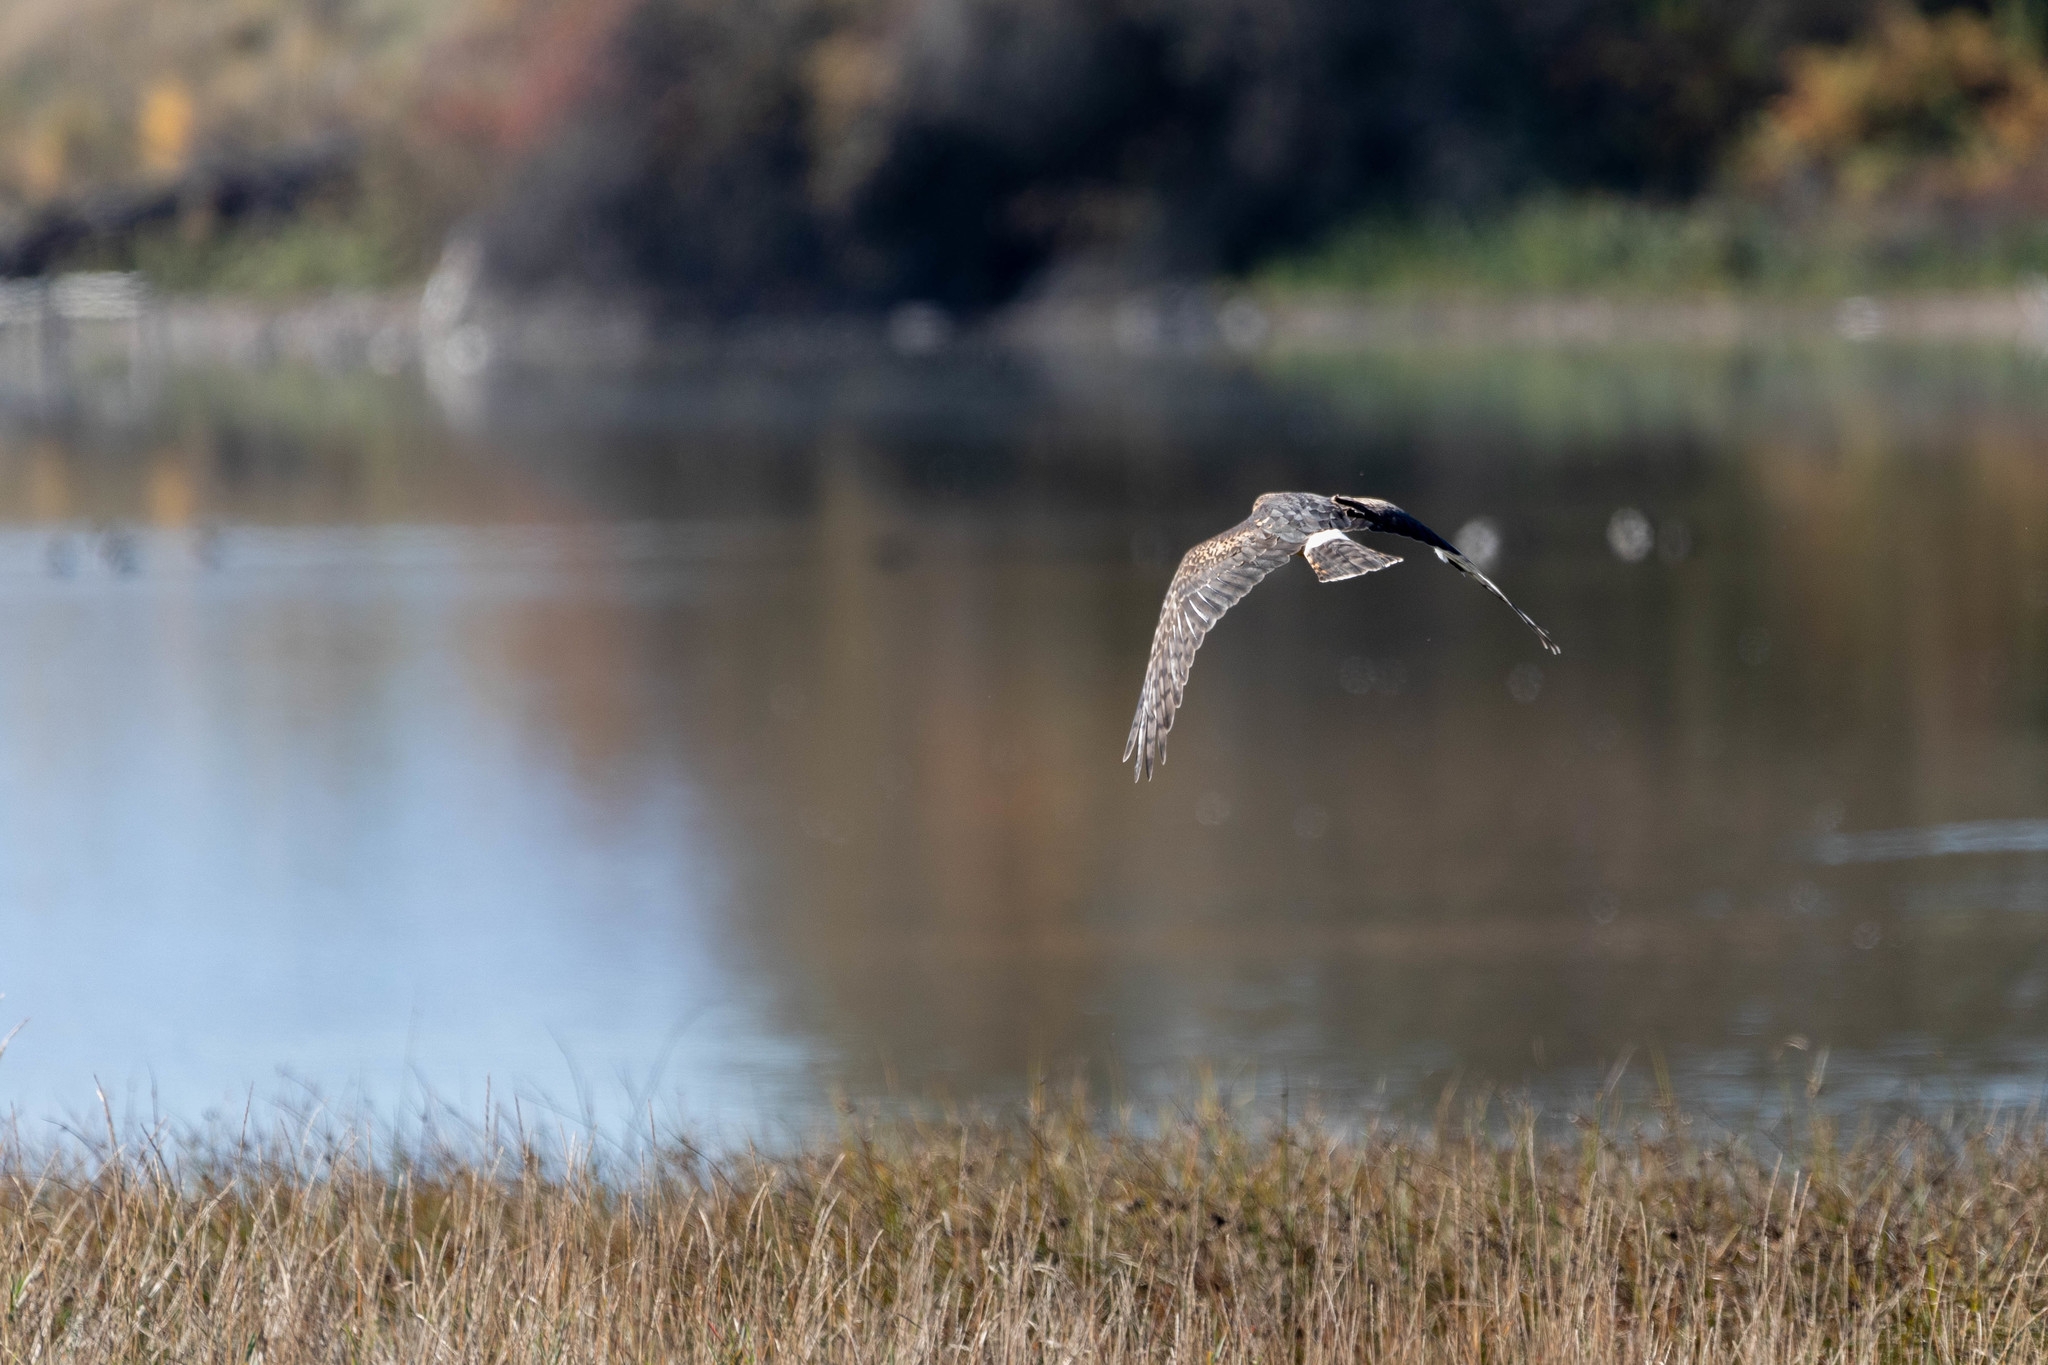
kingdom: Animalia
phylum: Chordata
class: Aves
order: Accipitriformes
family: Accipitridae
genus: Circus
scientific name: Circus cyaneus
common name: Hen harrier
